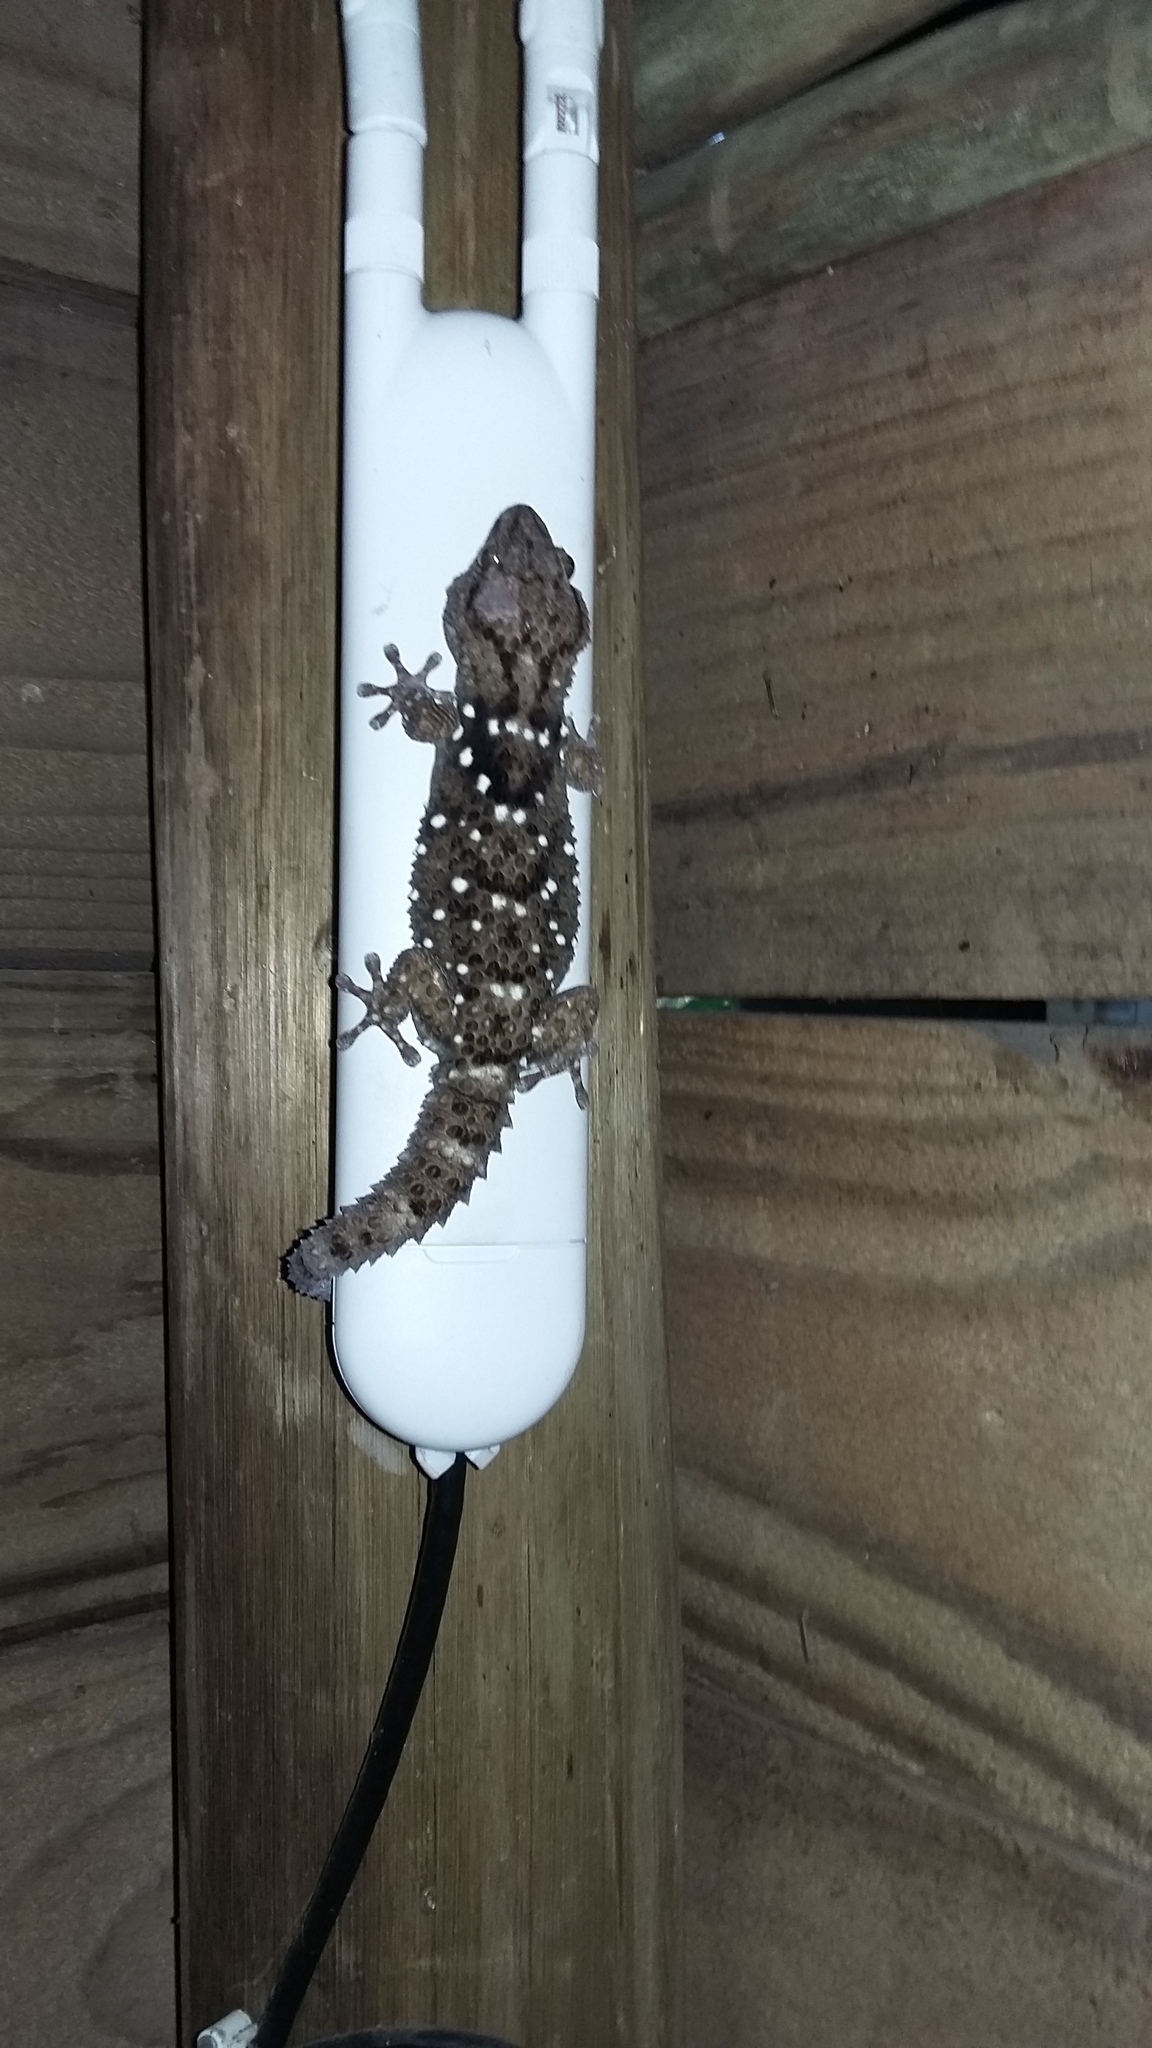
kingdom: Animalia
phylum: Chordata
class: Squamata
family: Gekkonidae
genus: Chondrodactylus
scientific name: Chondrodactylus laevigatus
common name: Fischer's thick-toed gecko
